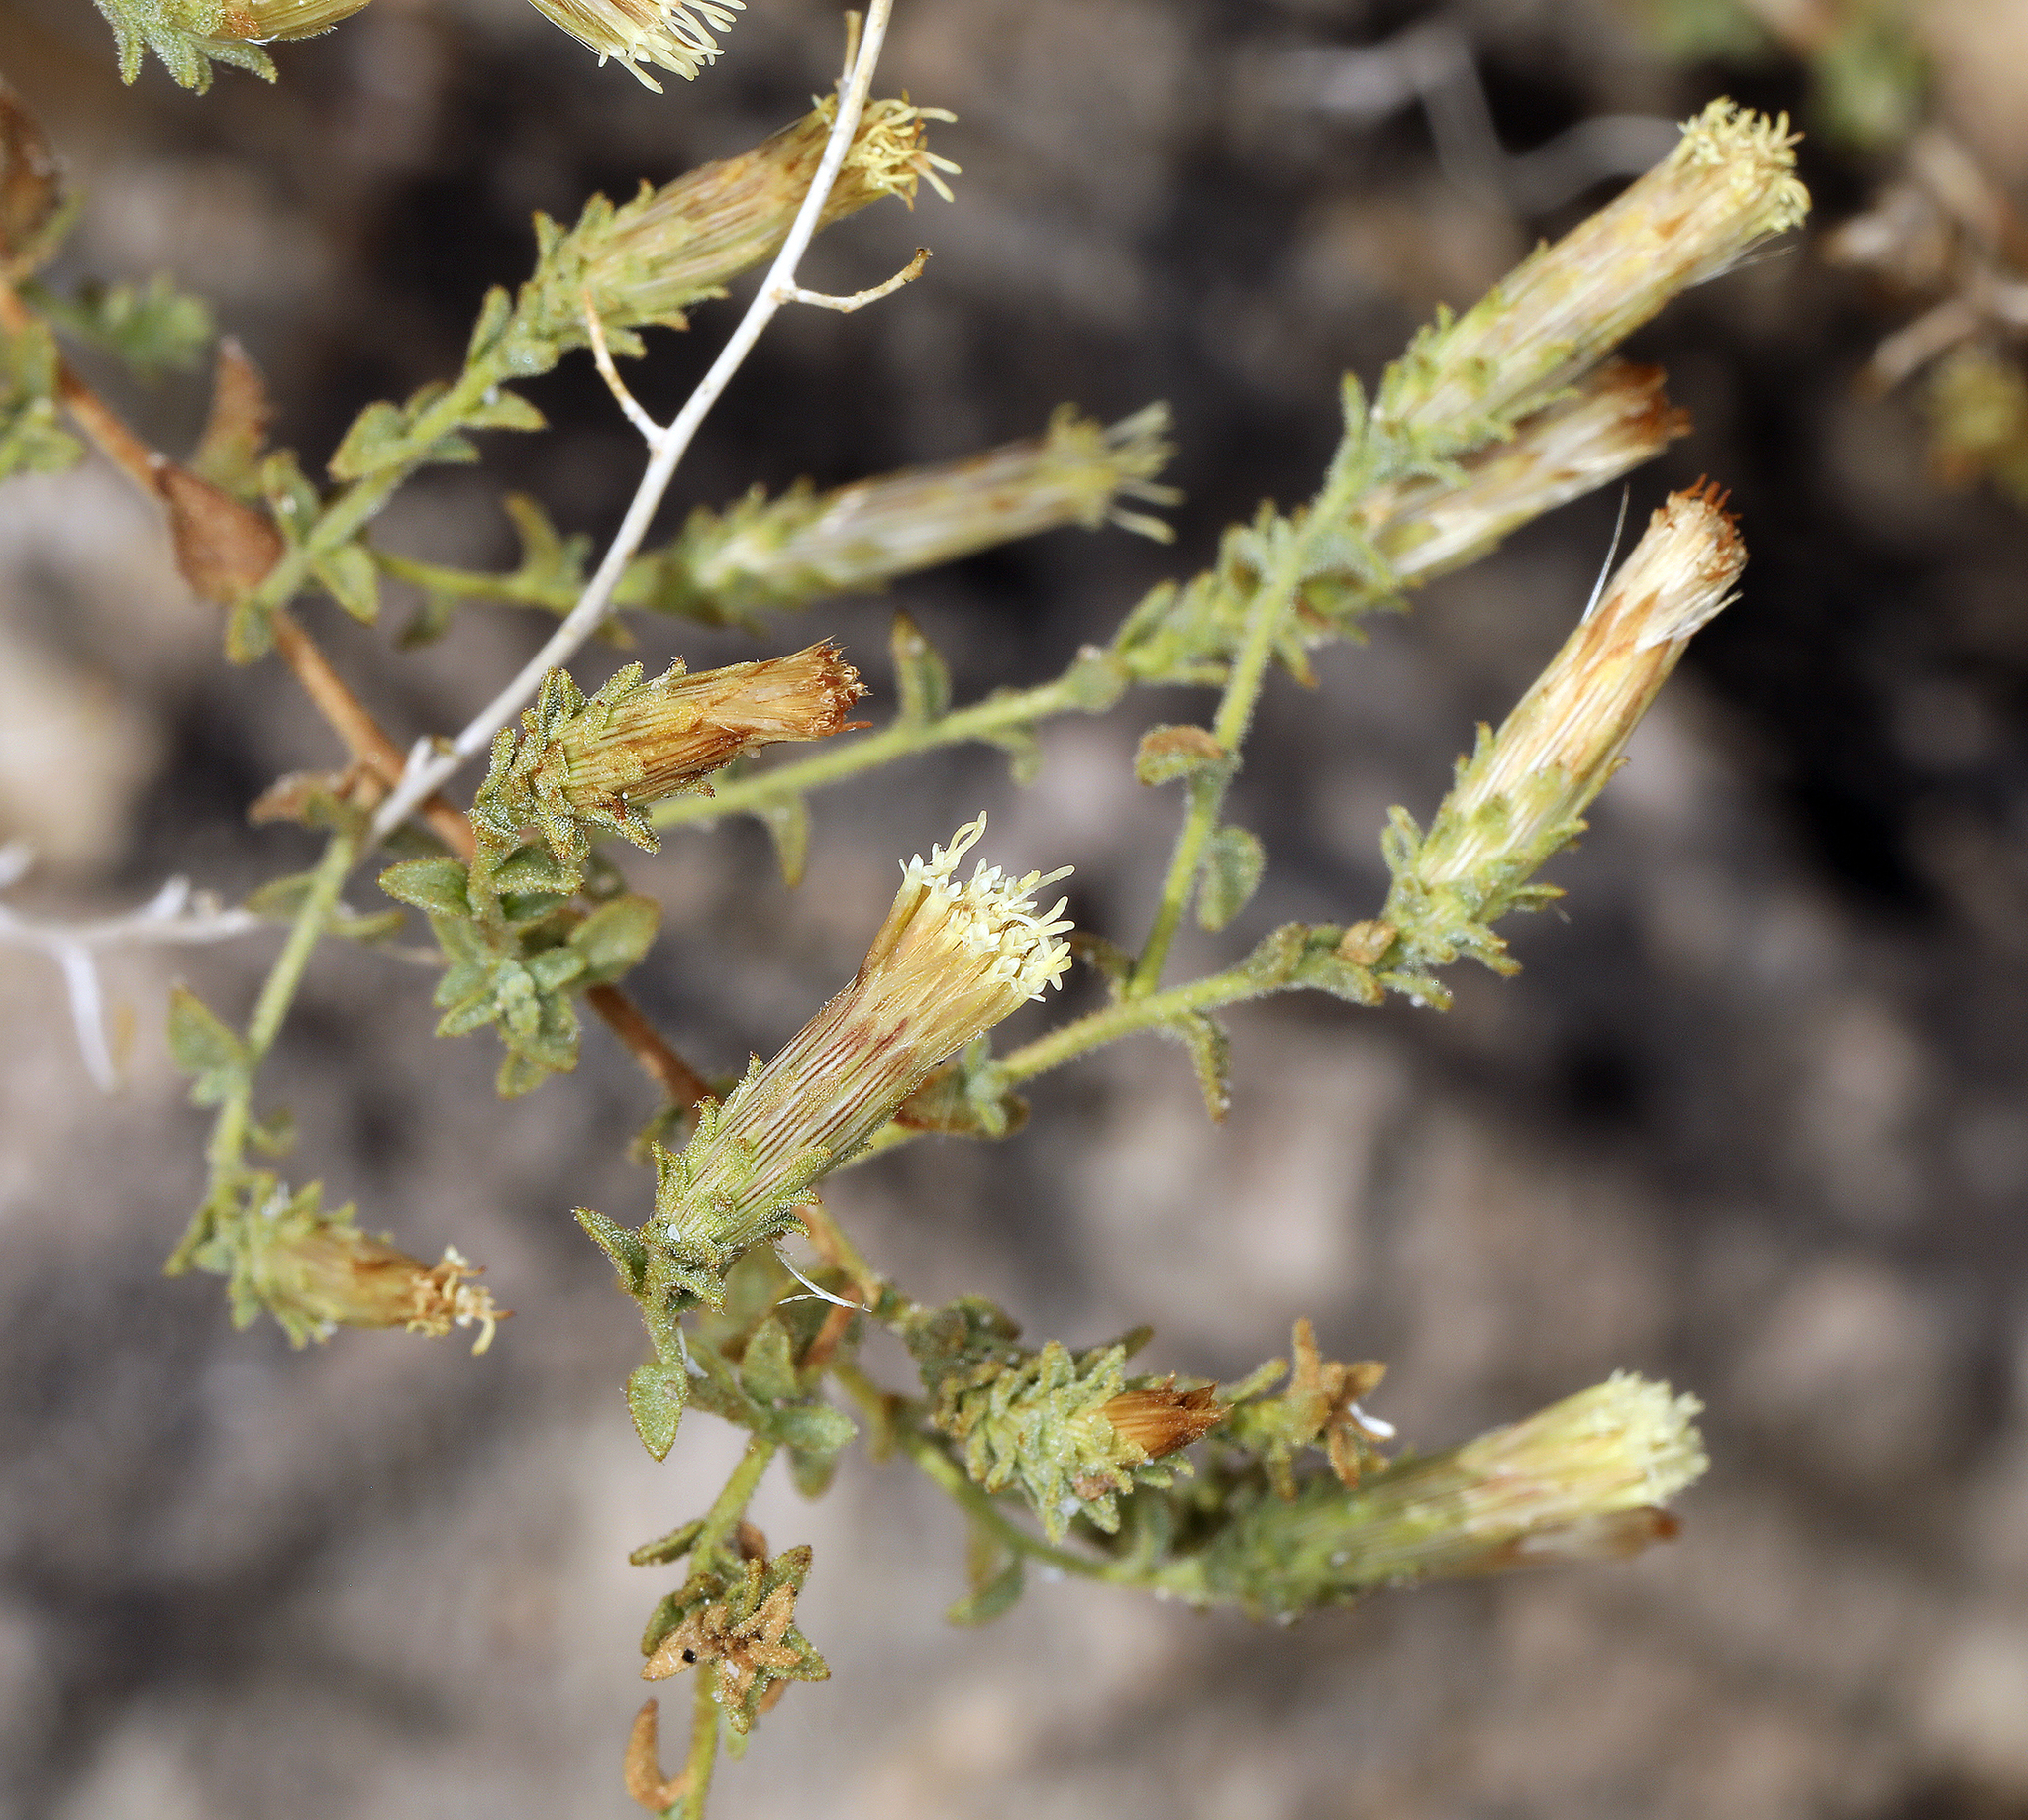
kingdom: Plantae
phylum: Tracheophyta
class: Magnoliopsida
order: Asterales
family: Asteraceae
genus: Brickellia
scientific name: Brickellia microphylla
